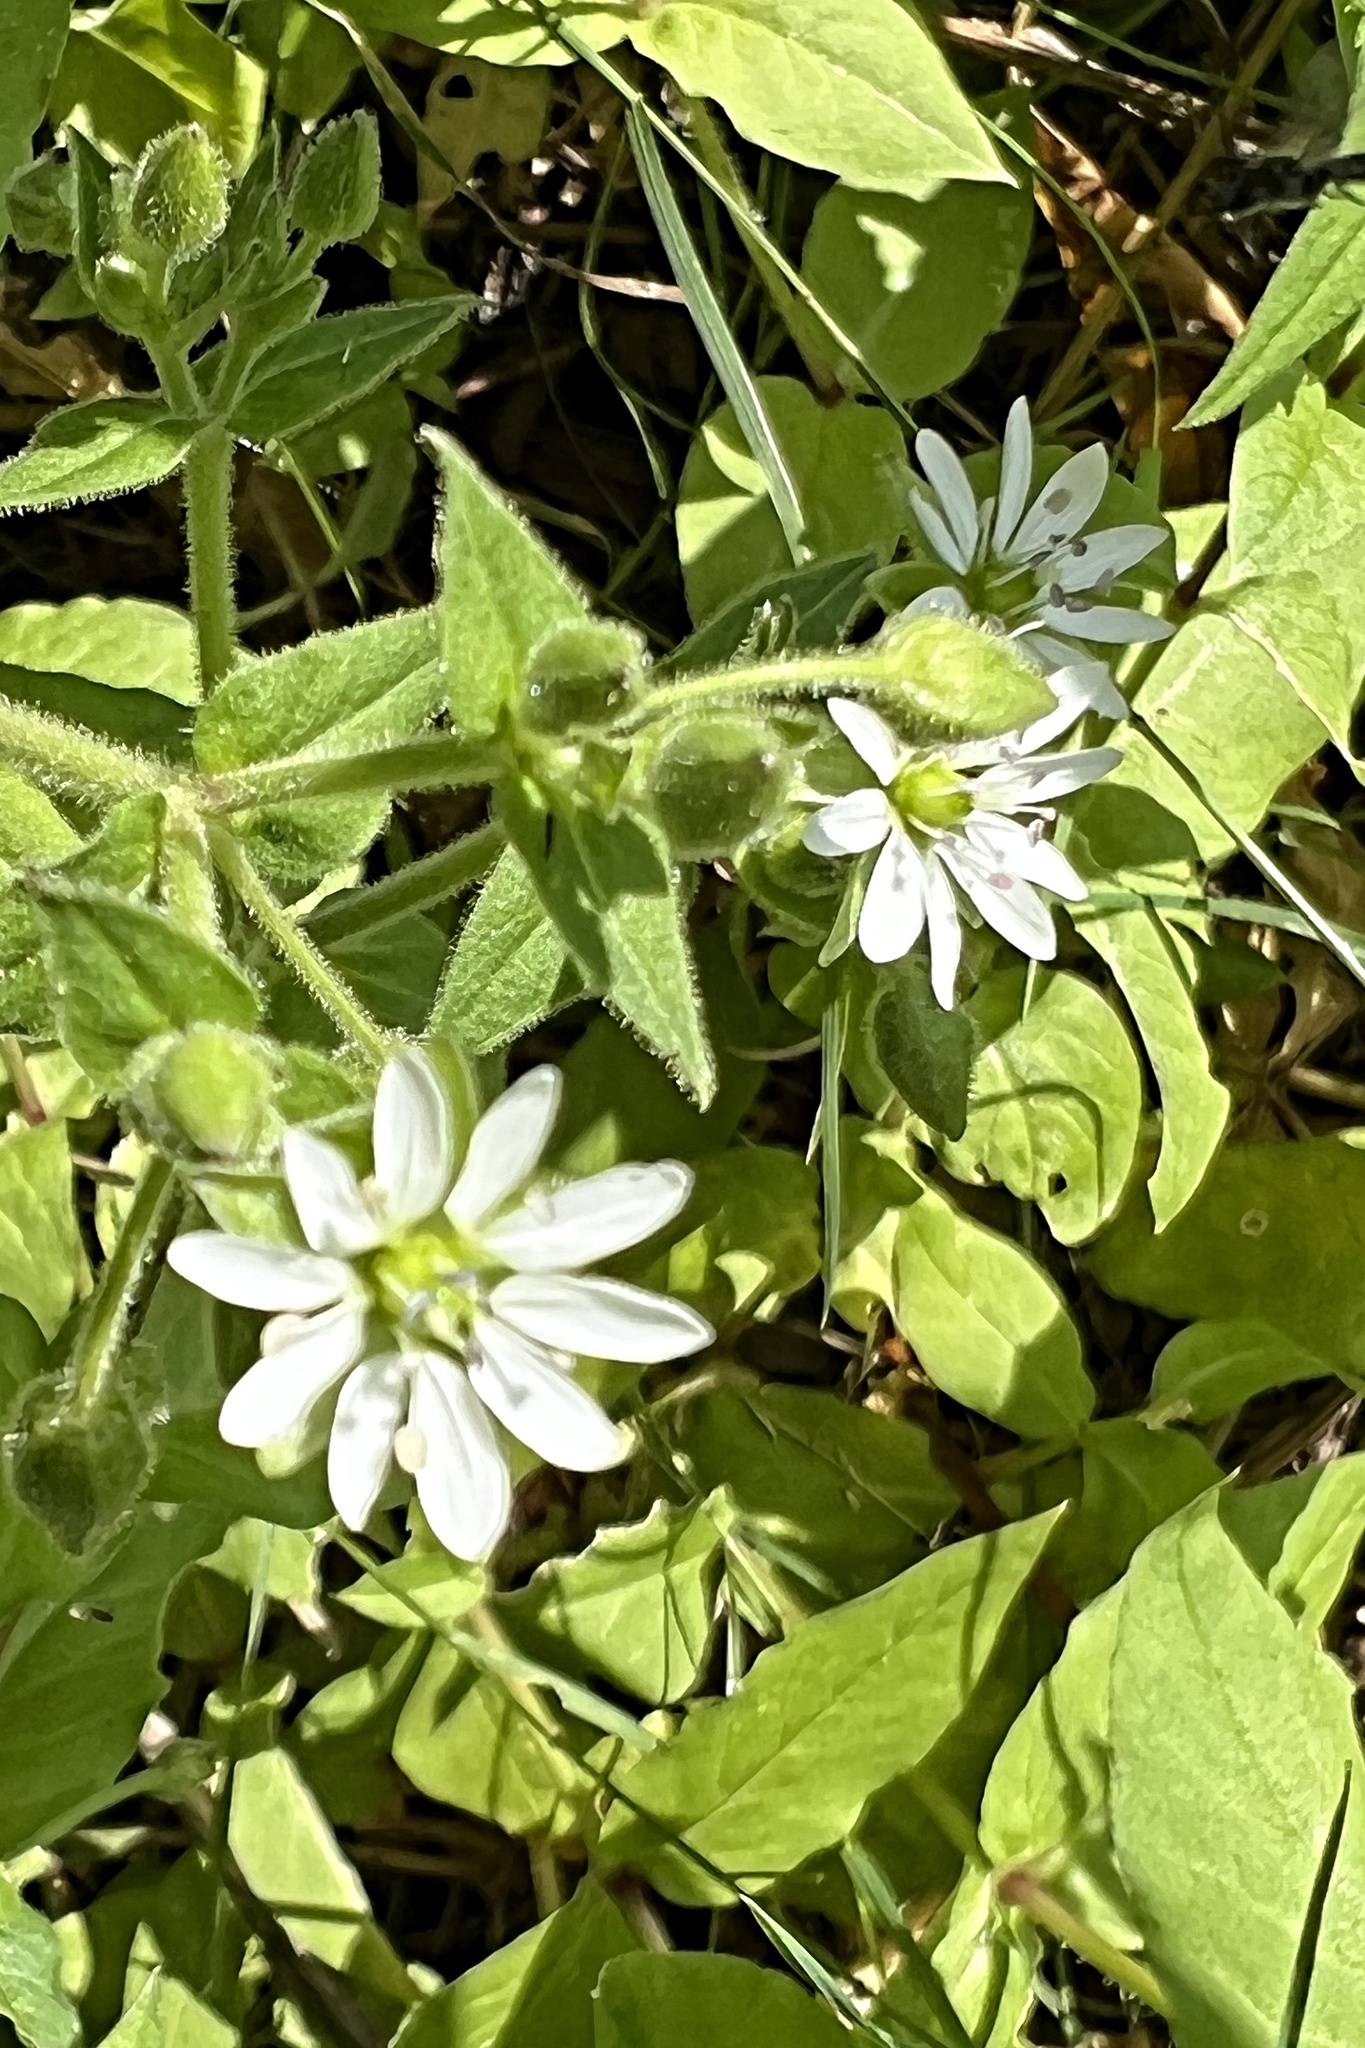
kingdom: Plantae
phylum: Tracheophyta
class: Magnoliopsida
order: Caryophyllales
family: Caryophyllaceae
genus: Stellaria
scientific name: Stellaria aquatica
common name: Water chickweed
